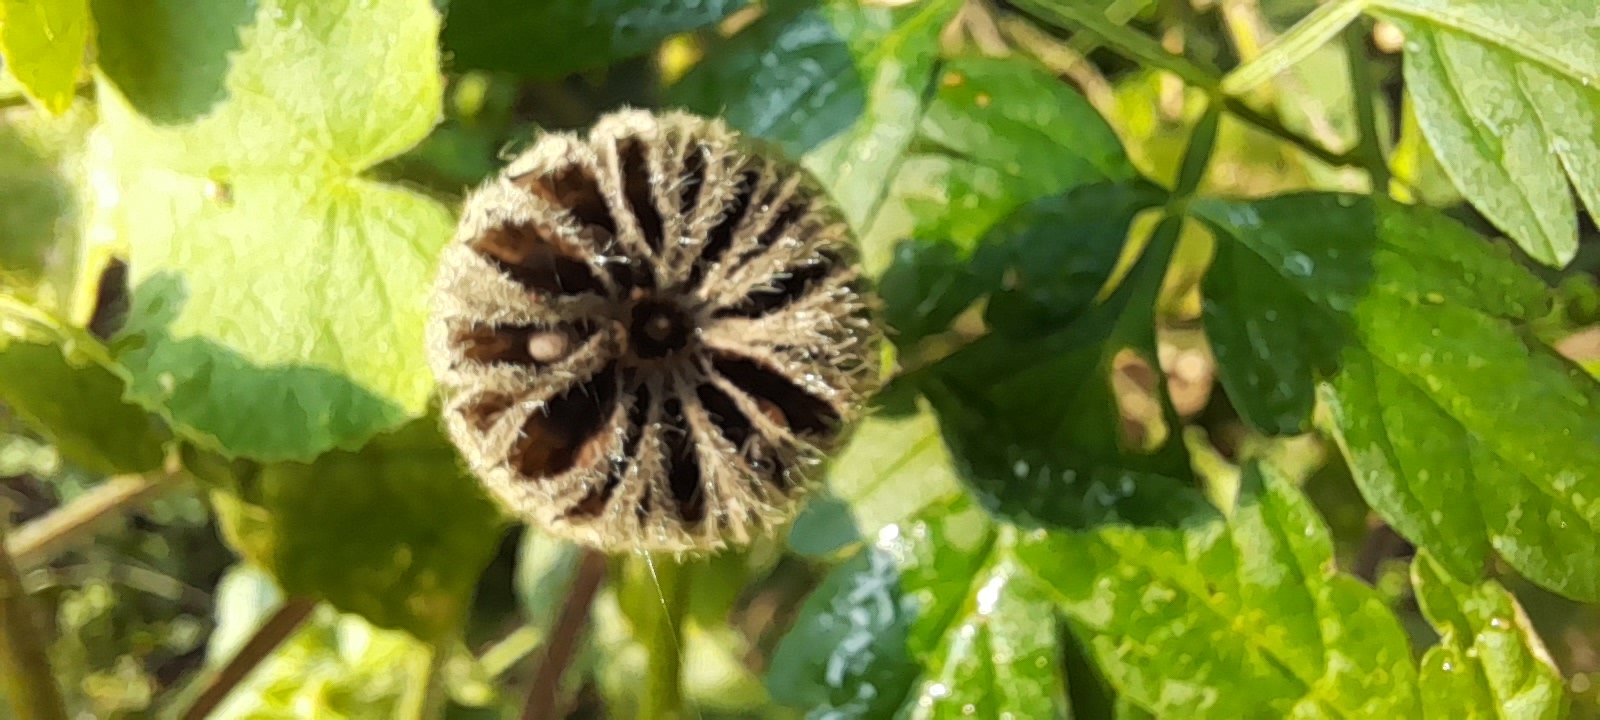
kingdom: Plantae
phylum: Tracheophyta
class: Magnoliopsida
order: Malvales
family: Malvaceae
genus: Abutilon
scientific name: Abutilon indicum
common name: Indian abutilon
